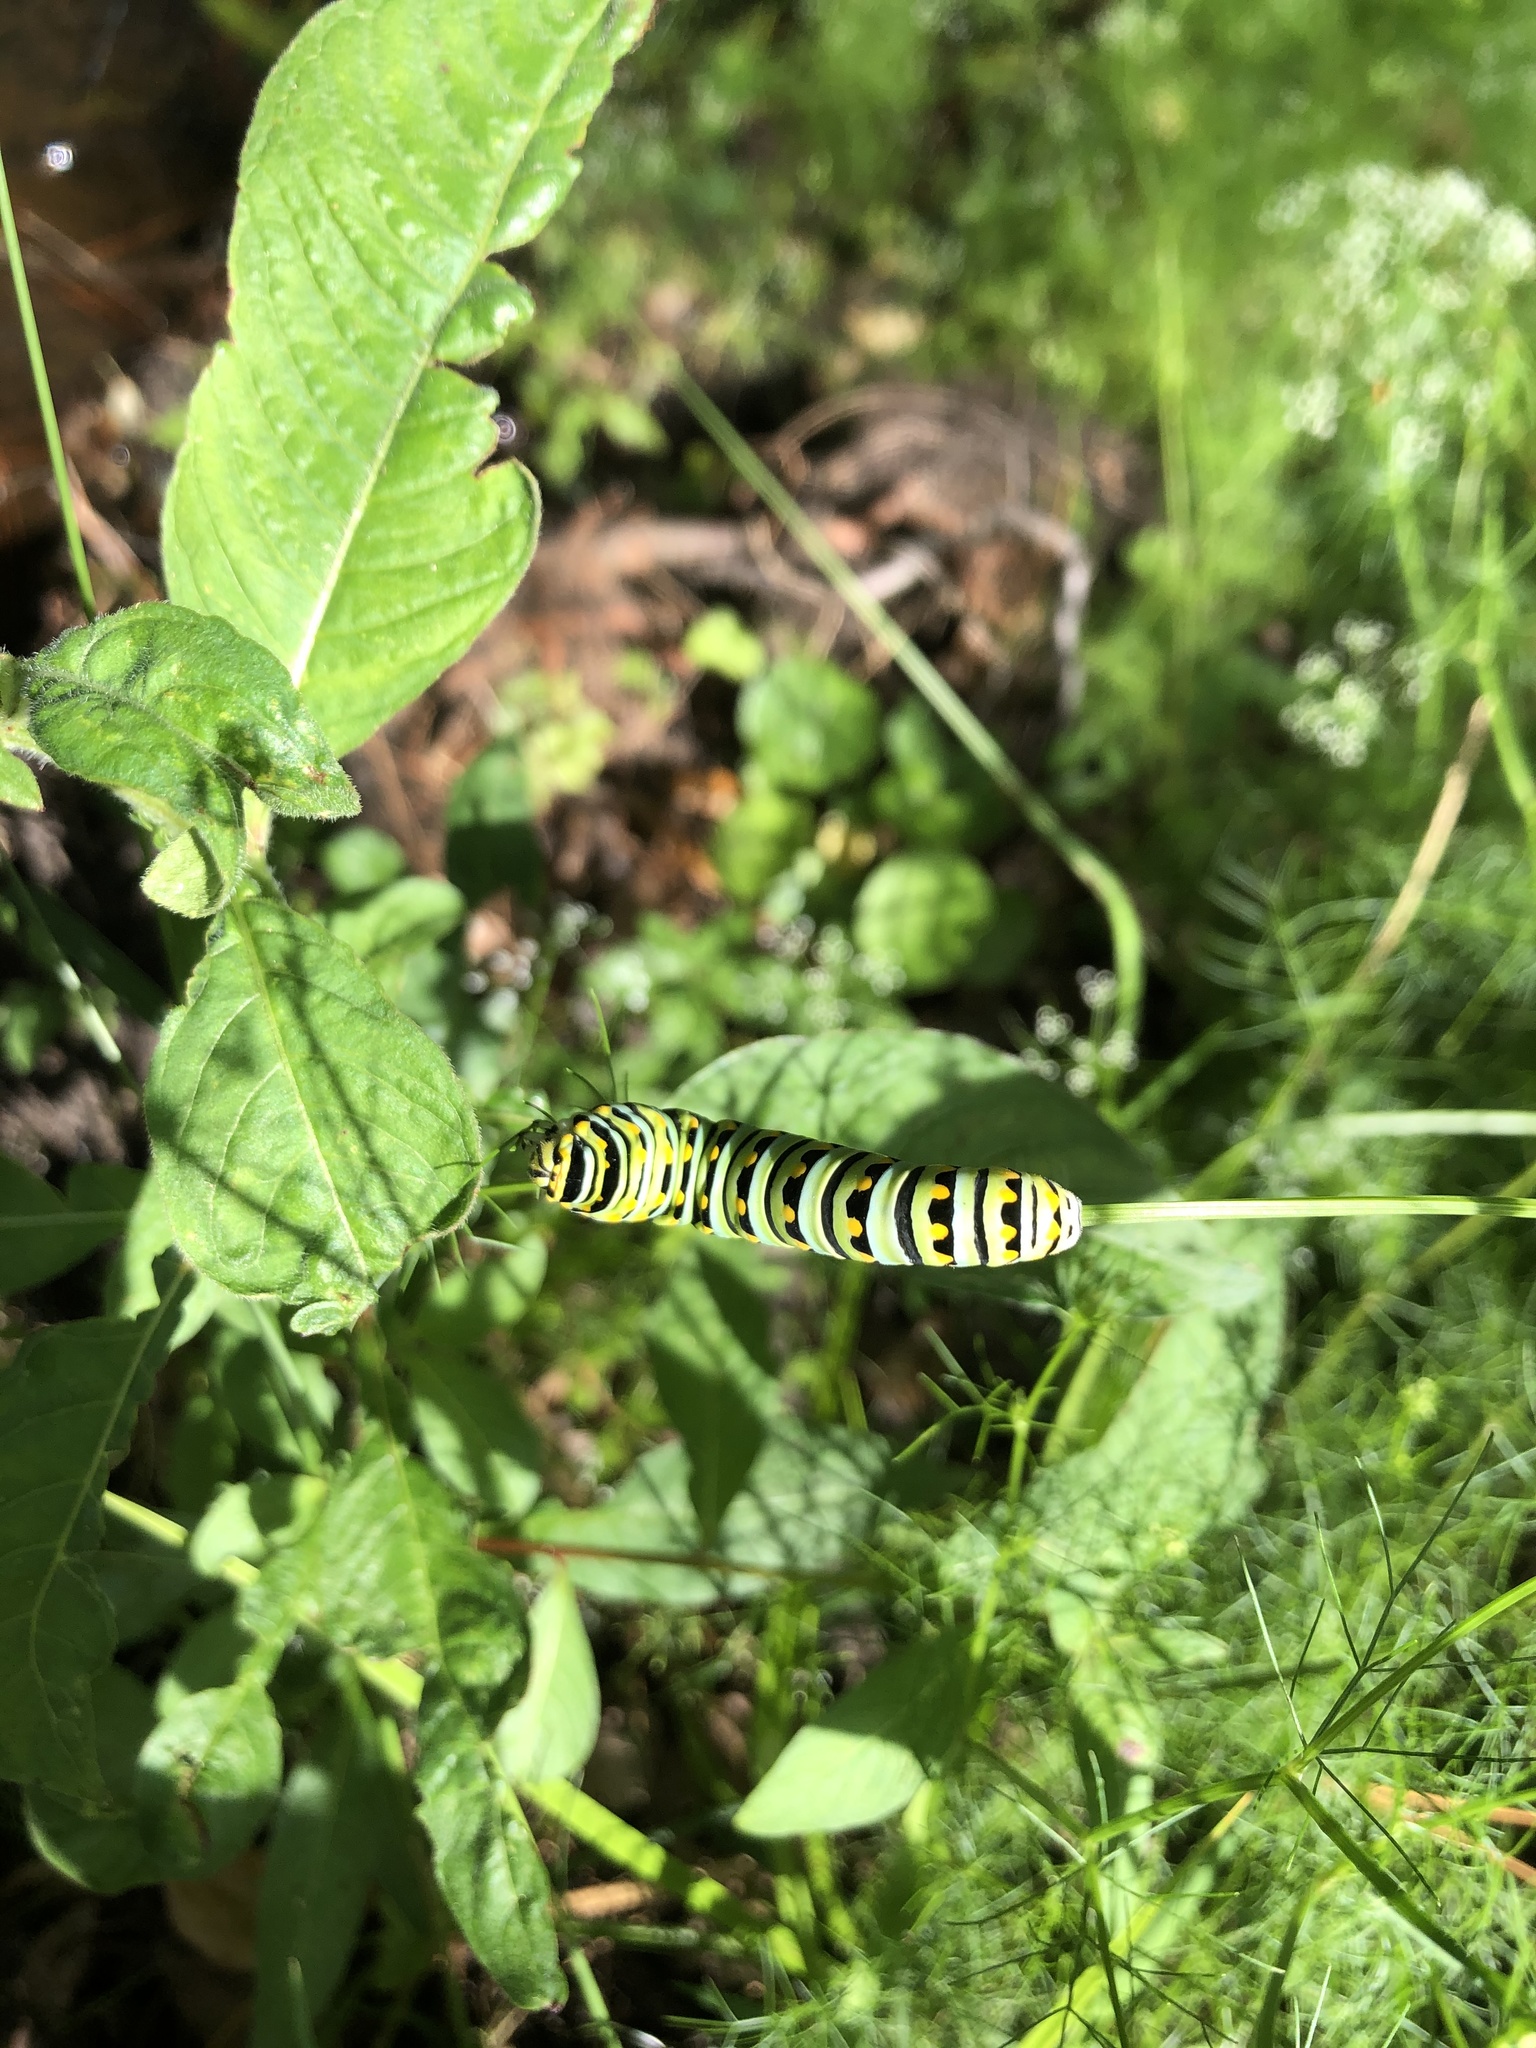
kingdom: Animalia
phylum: Arthropoda
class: Insecta
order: Lepidoptera
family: Papilionidae
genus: Papilio
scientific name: Papilio polyxenes
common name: Black swallowtail
